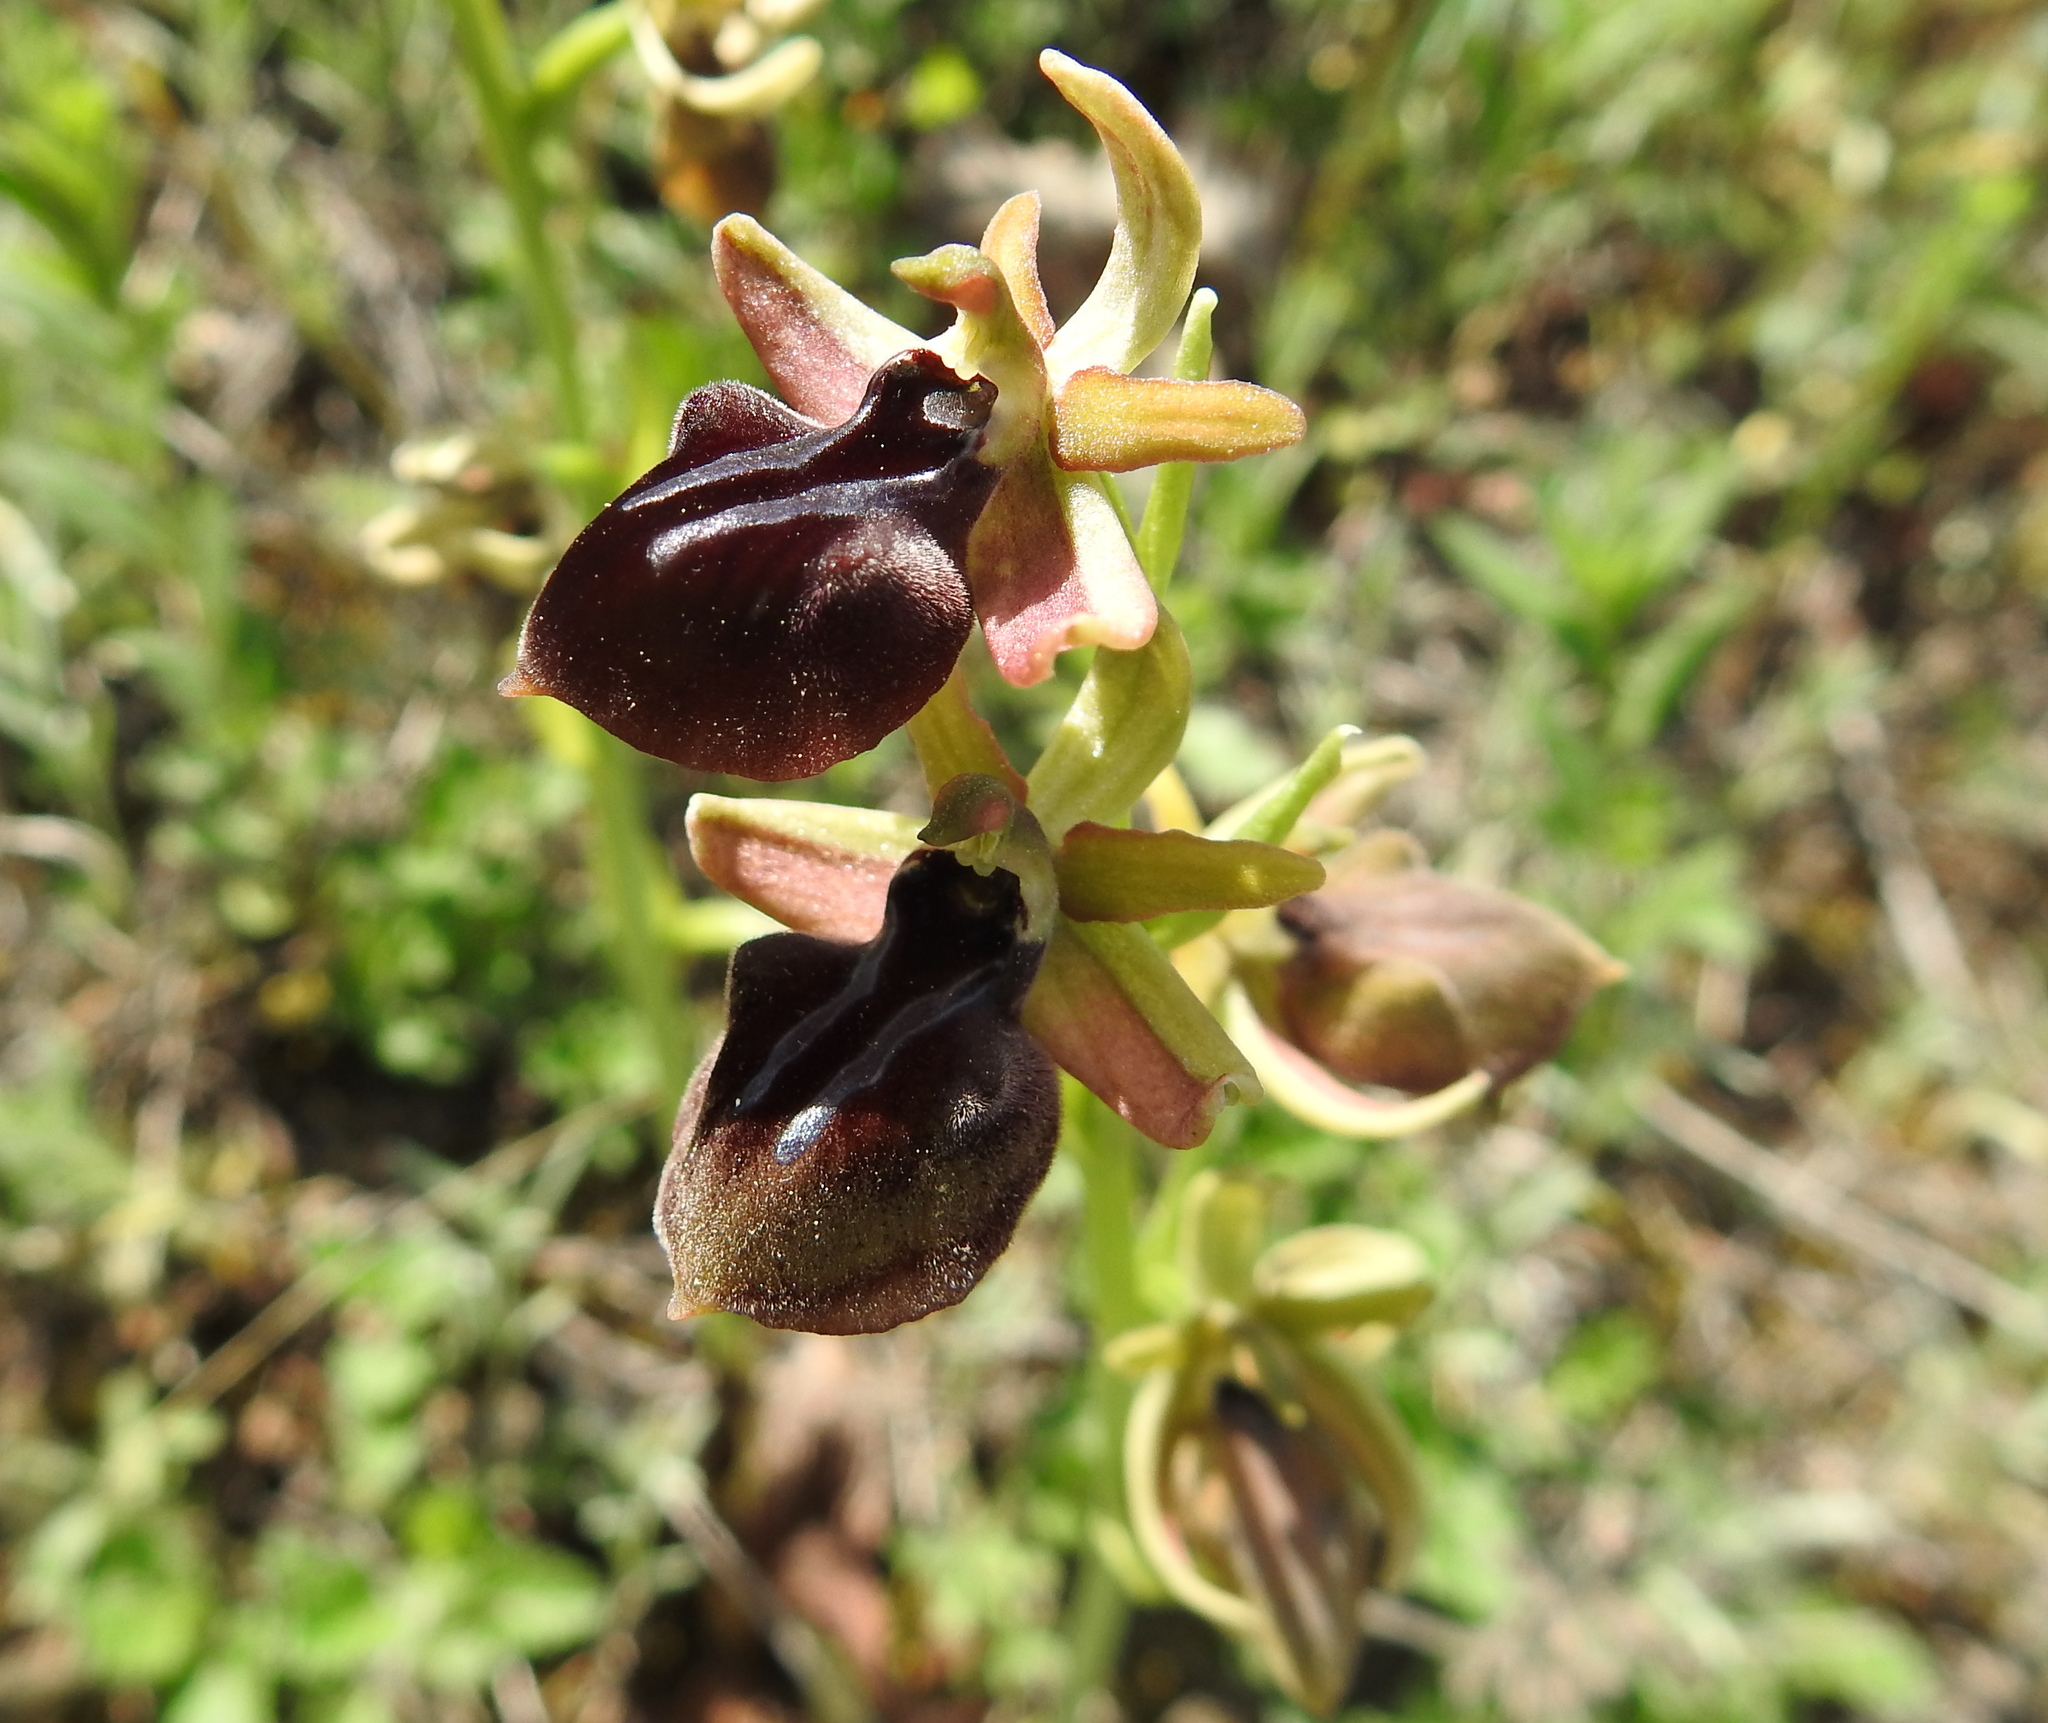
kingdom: Plantae
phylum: Tracheophyta
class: Liliopsida
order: Asparagales
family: Orchidaceae
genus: Ophrys
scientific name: Ophrys sphegodes
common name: Early spider-orchid
